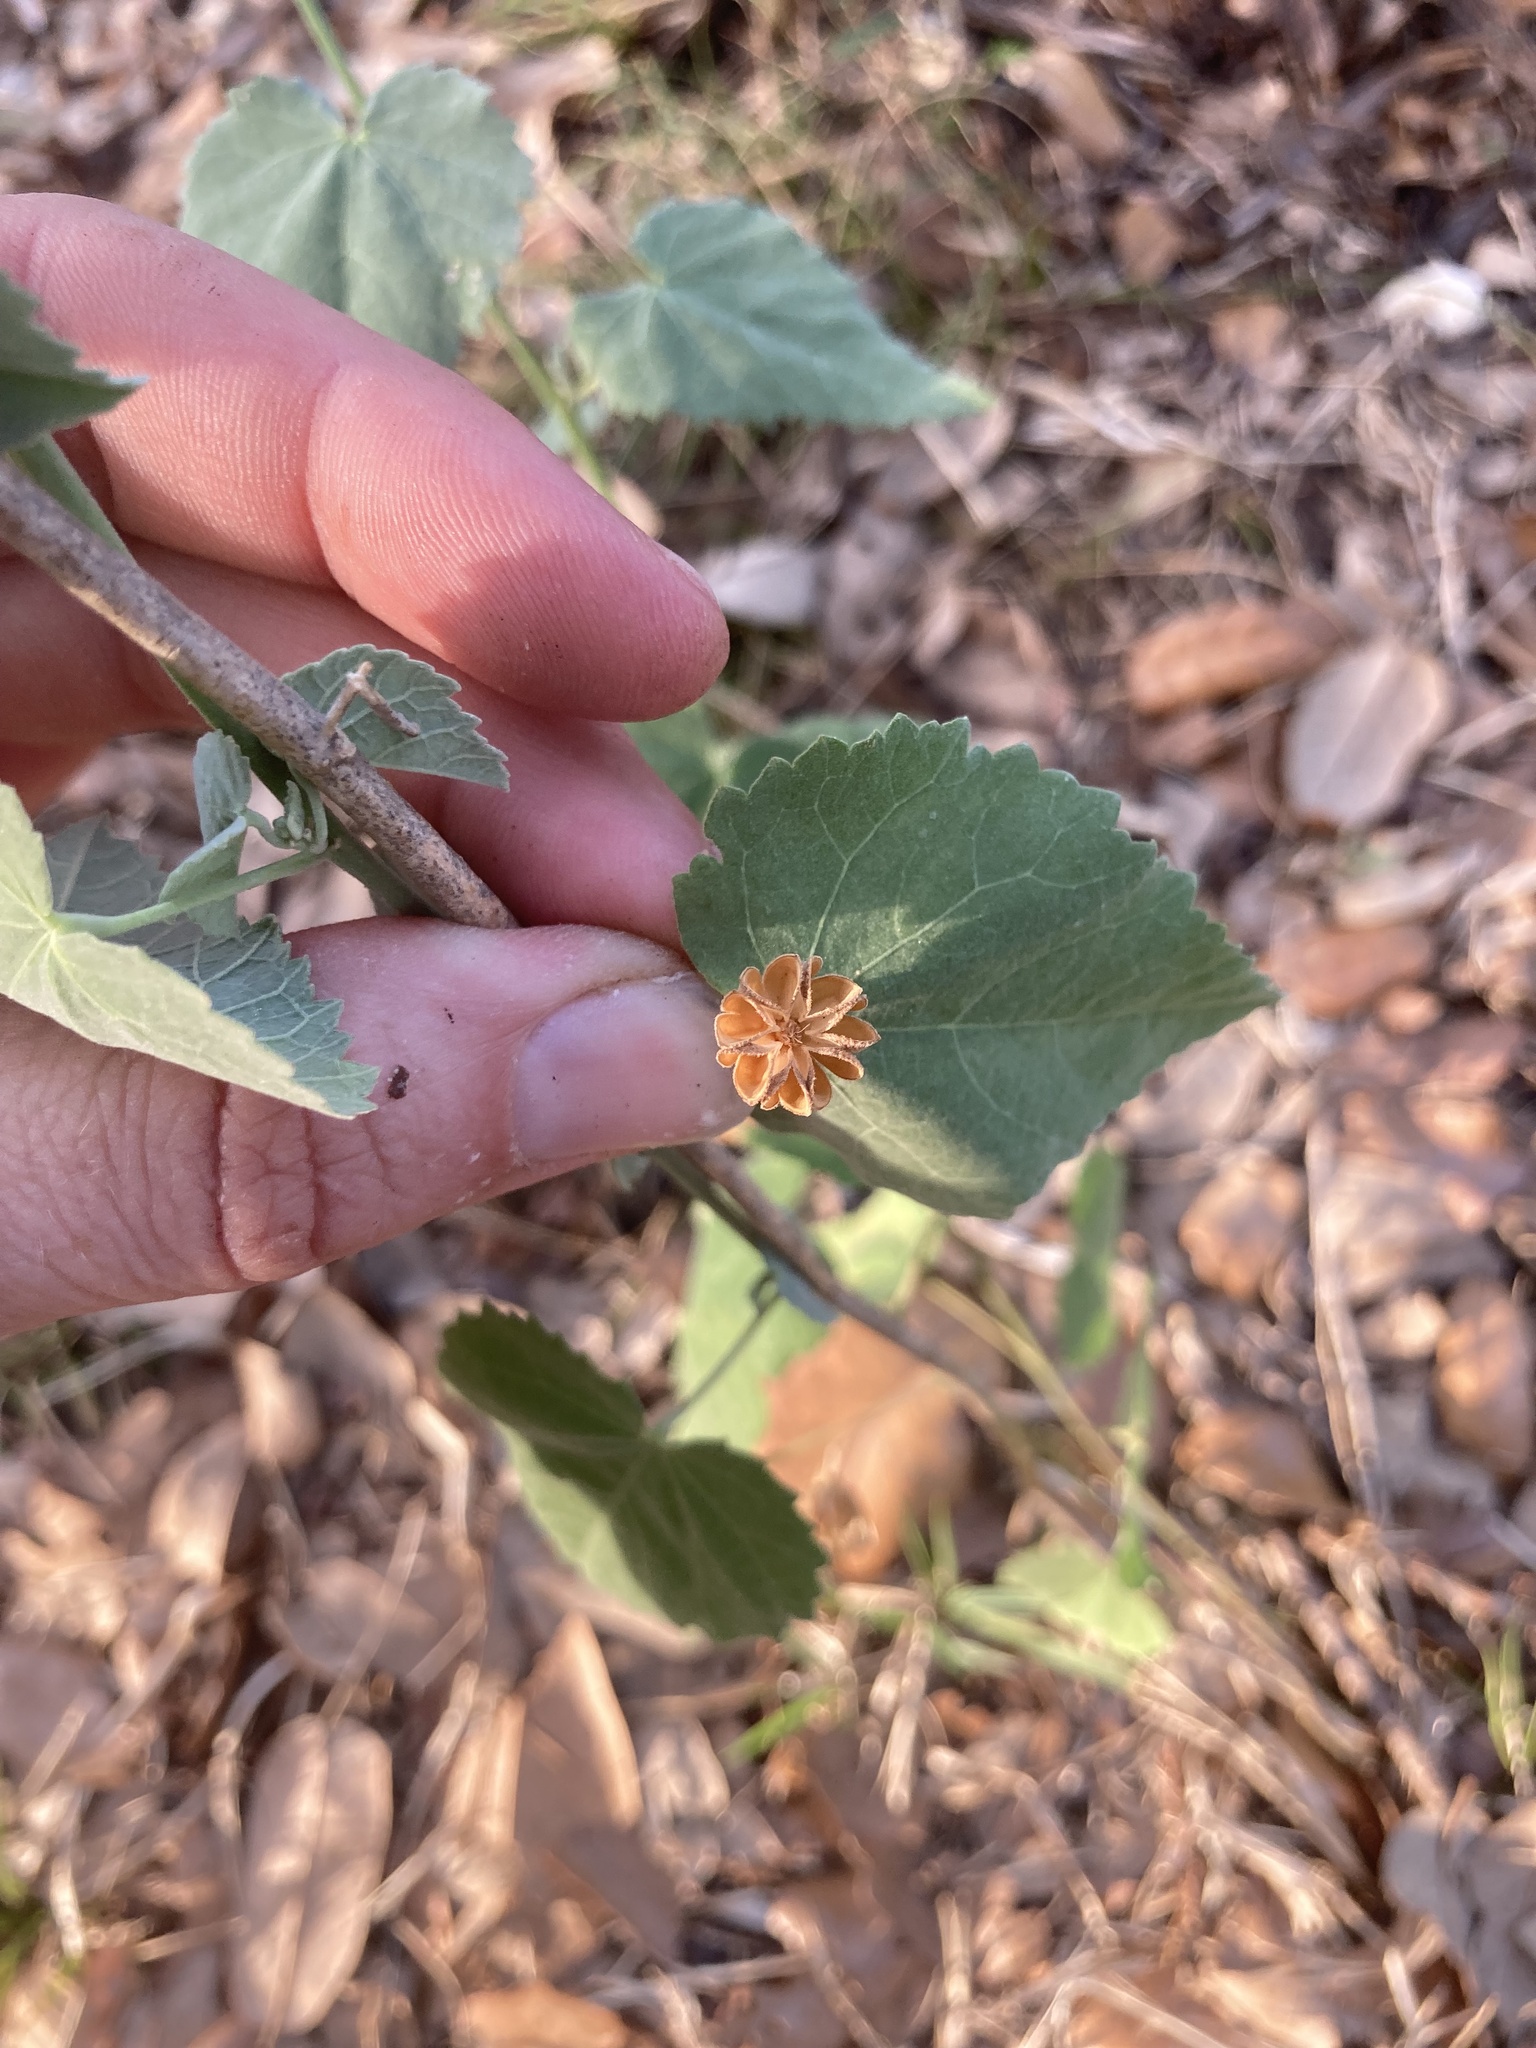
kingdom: Plantae
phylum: Tracheophyta
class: Magnoliopsida
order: Malvales
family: Malvaceae
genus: Abutilon
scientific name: Abutilon fruticosum
